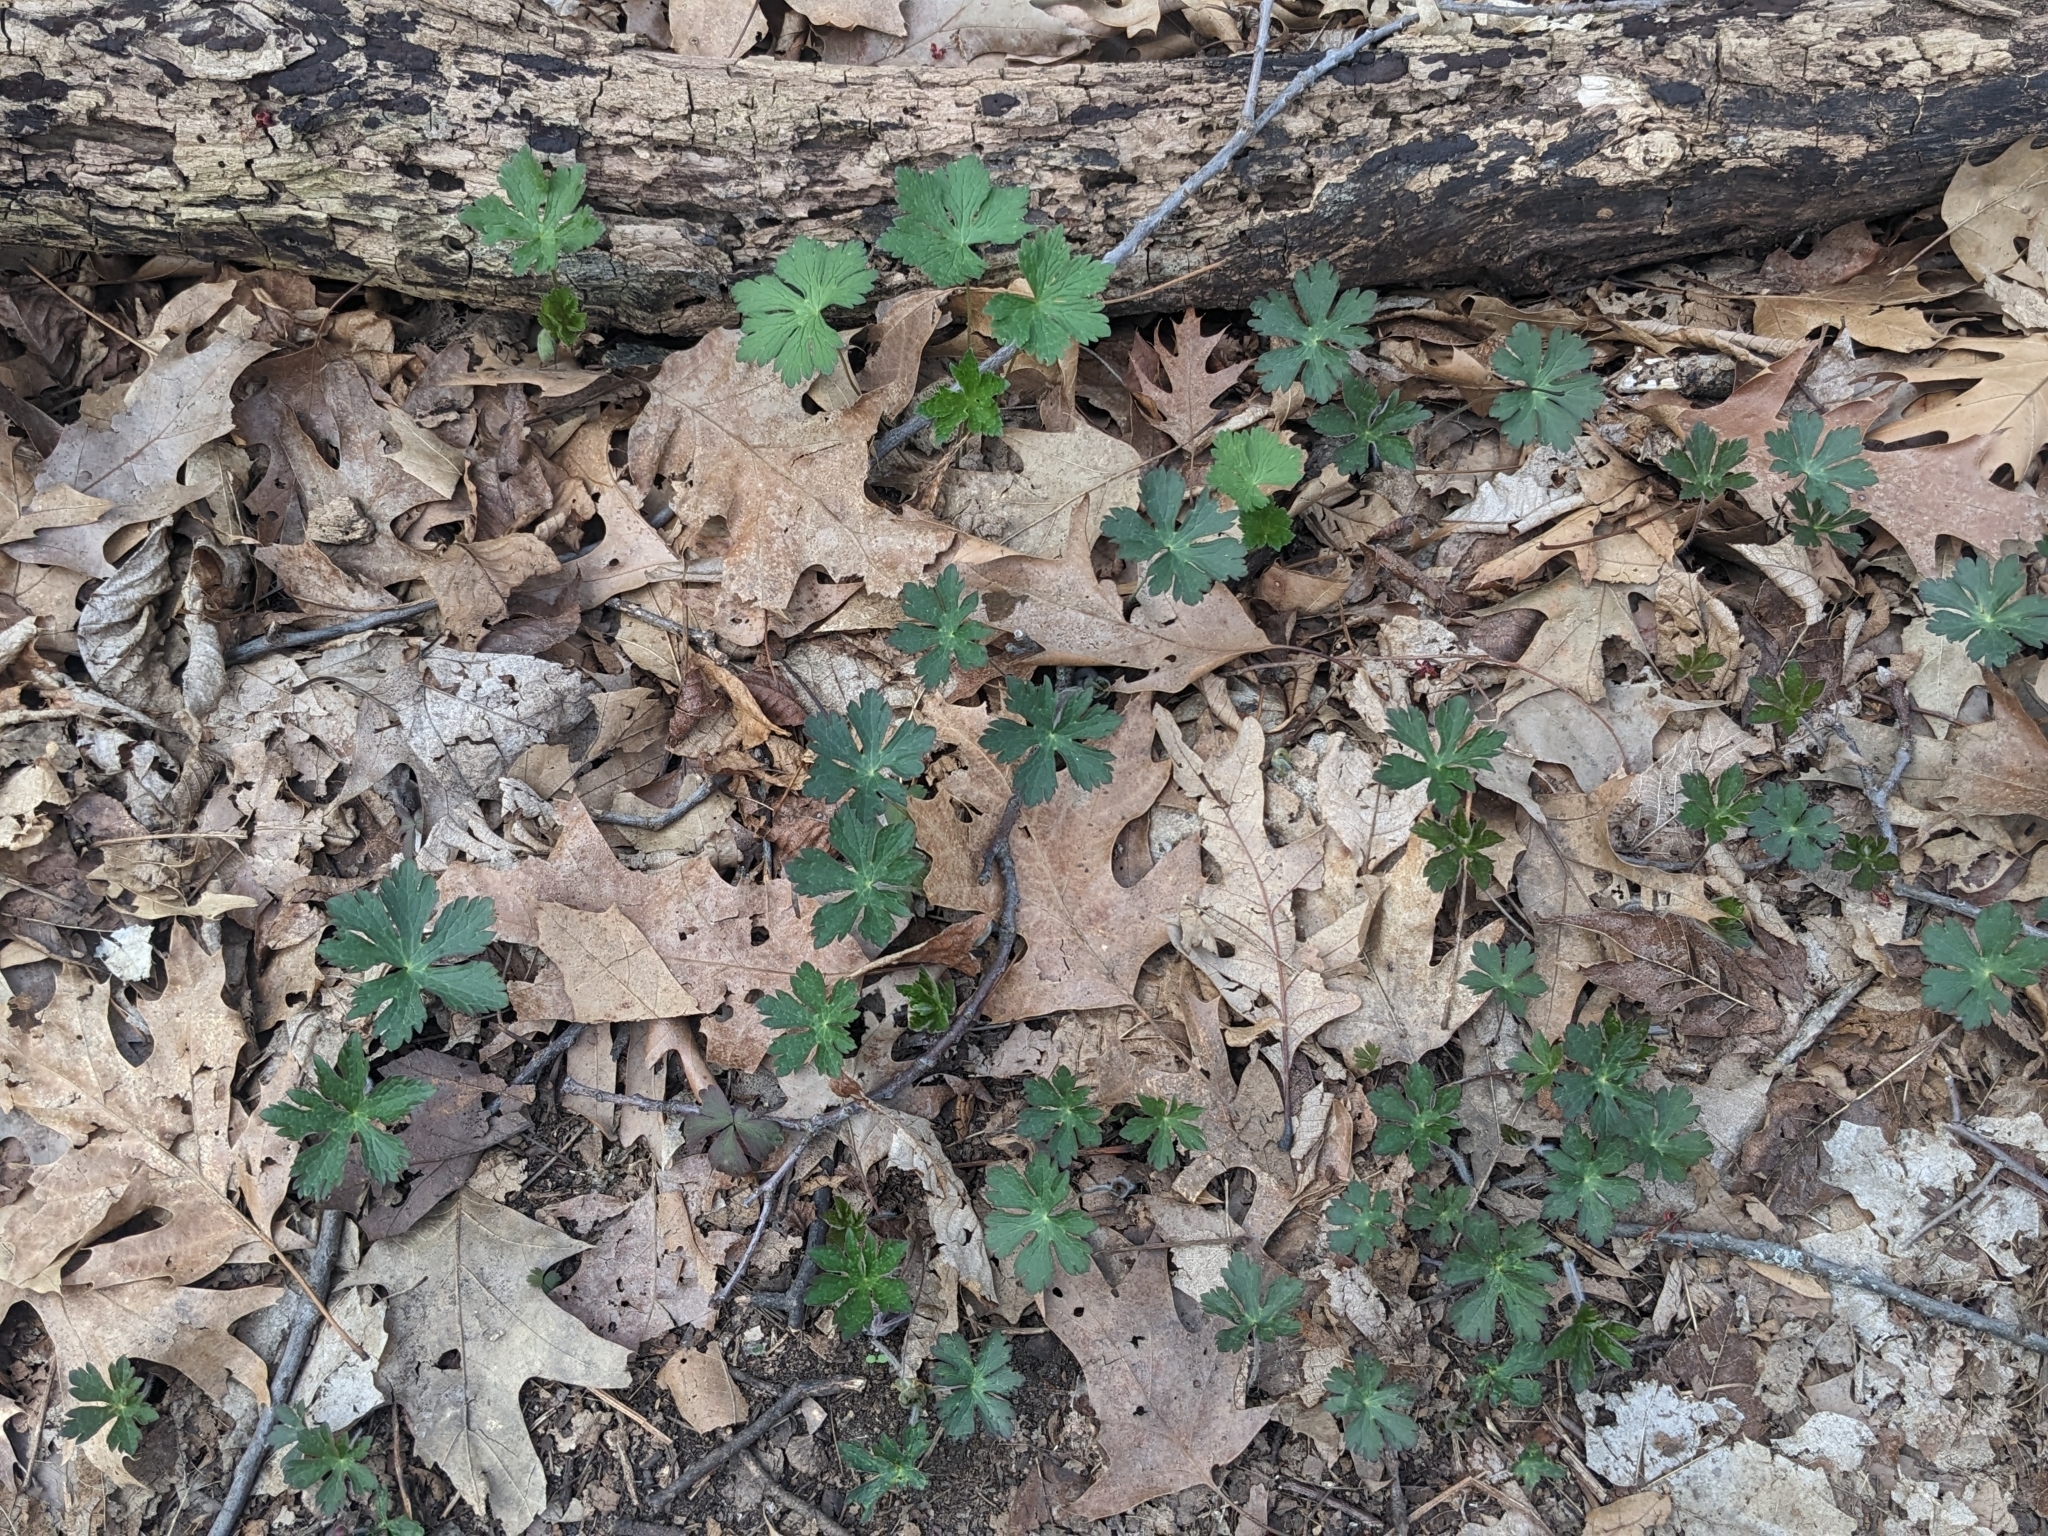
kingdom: Plantae
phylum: Tracheophyta
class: Magnoliopsida
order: Geraniales
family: Geraniaceae
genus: Geranium
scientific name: Geranium maculatum
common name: Spotted geranium
